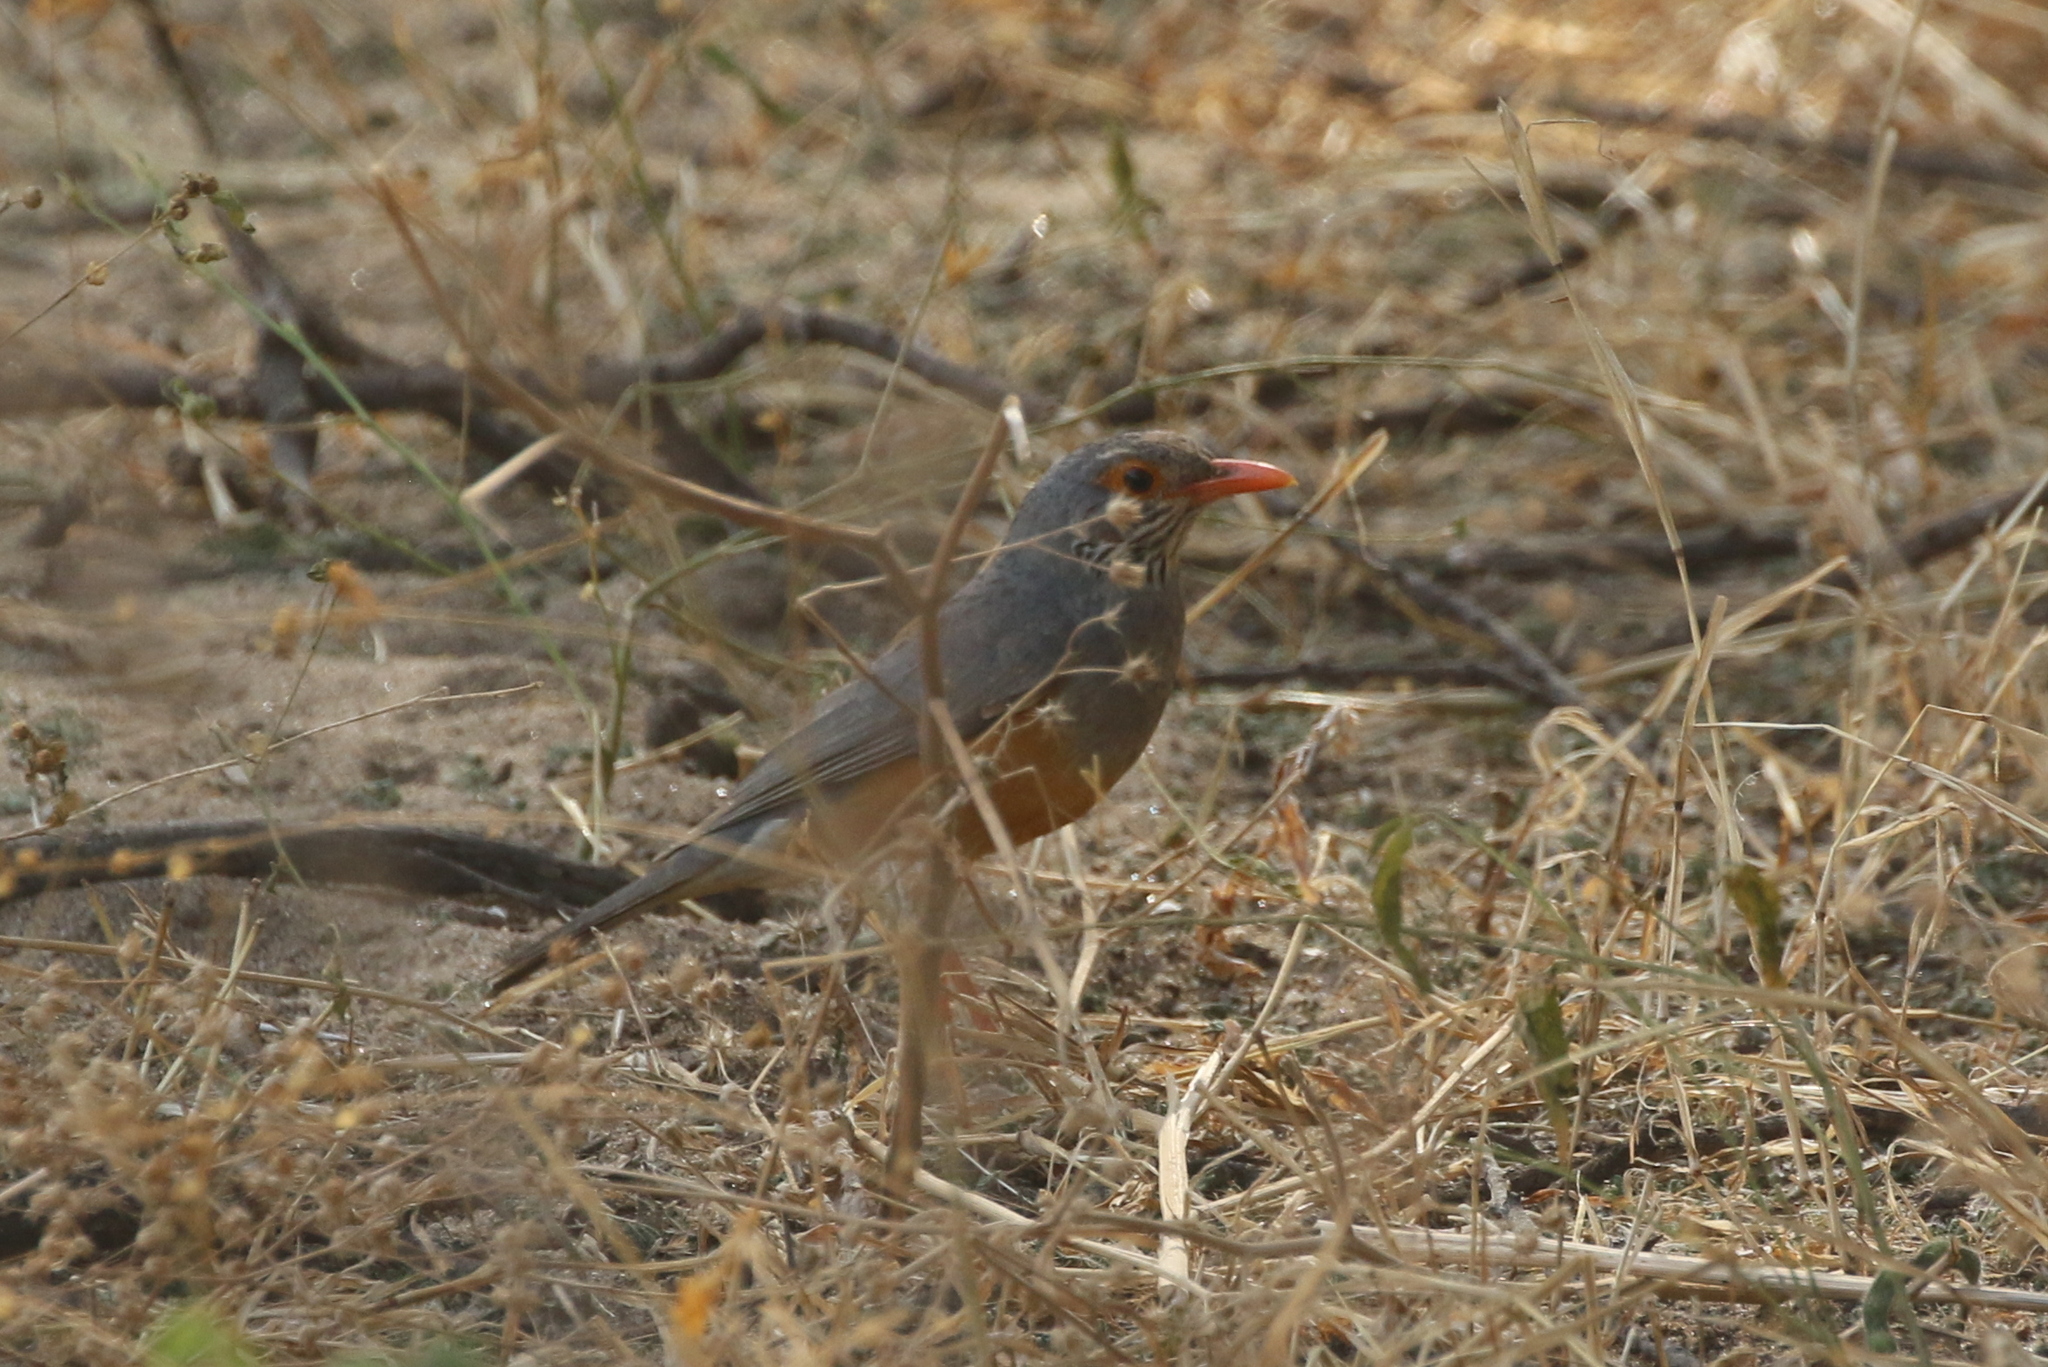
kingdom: Animalia
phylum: Chordata
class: Aves
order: Passeriformes
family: Turdidae
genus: Turdus
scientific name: Turdus tephronotus
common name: African bare-eyed thrush
